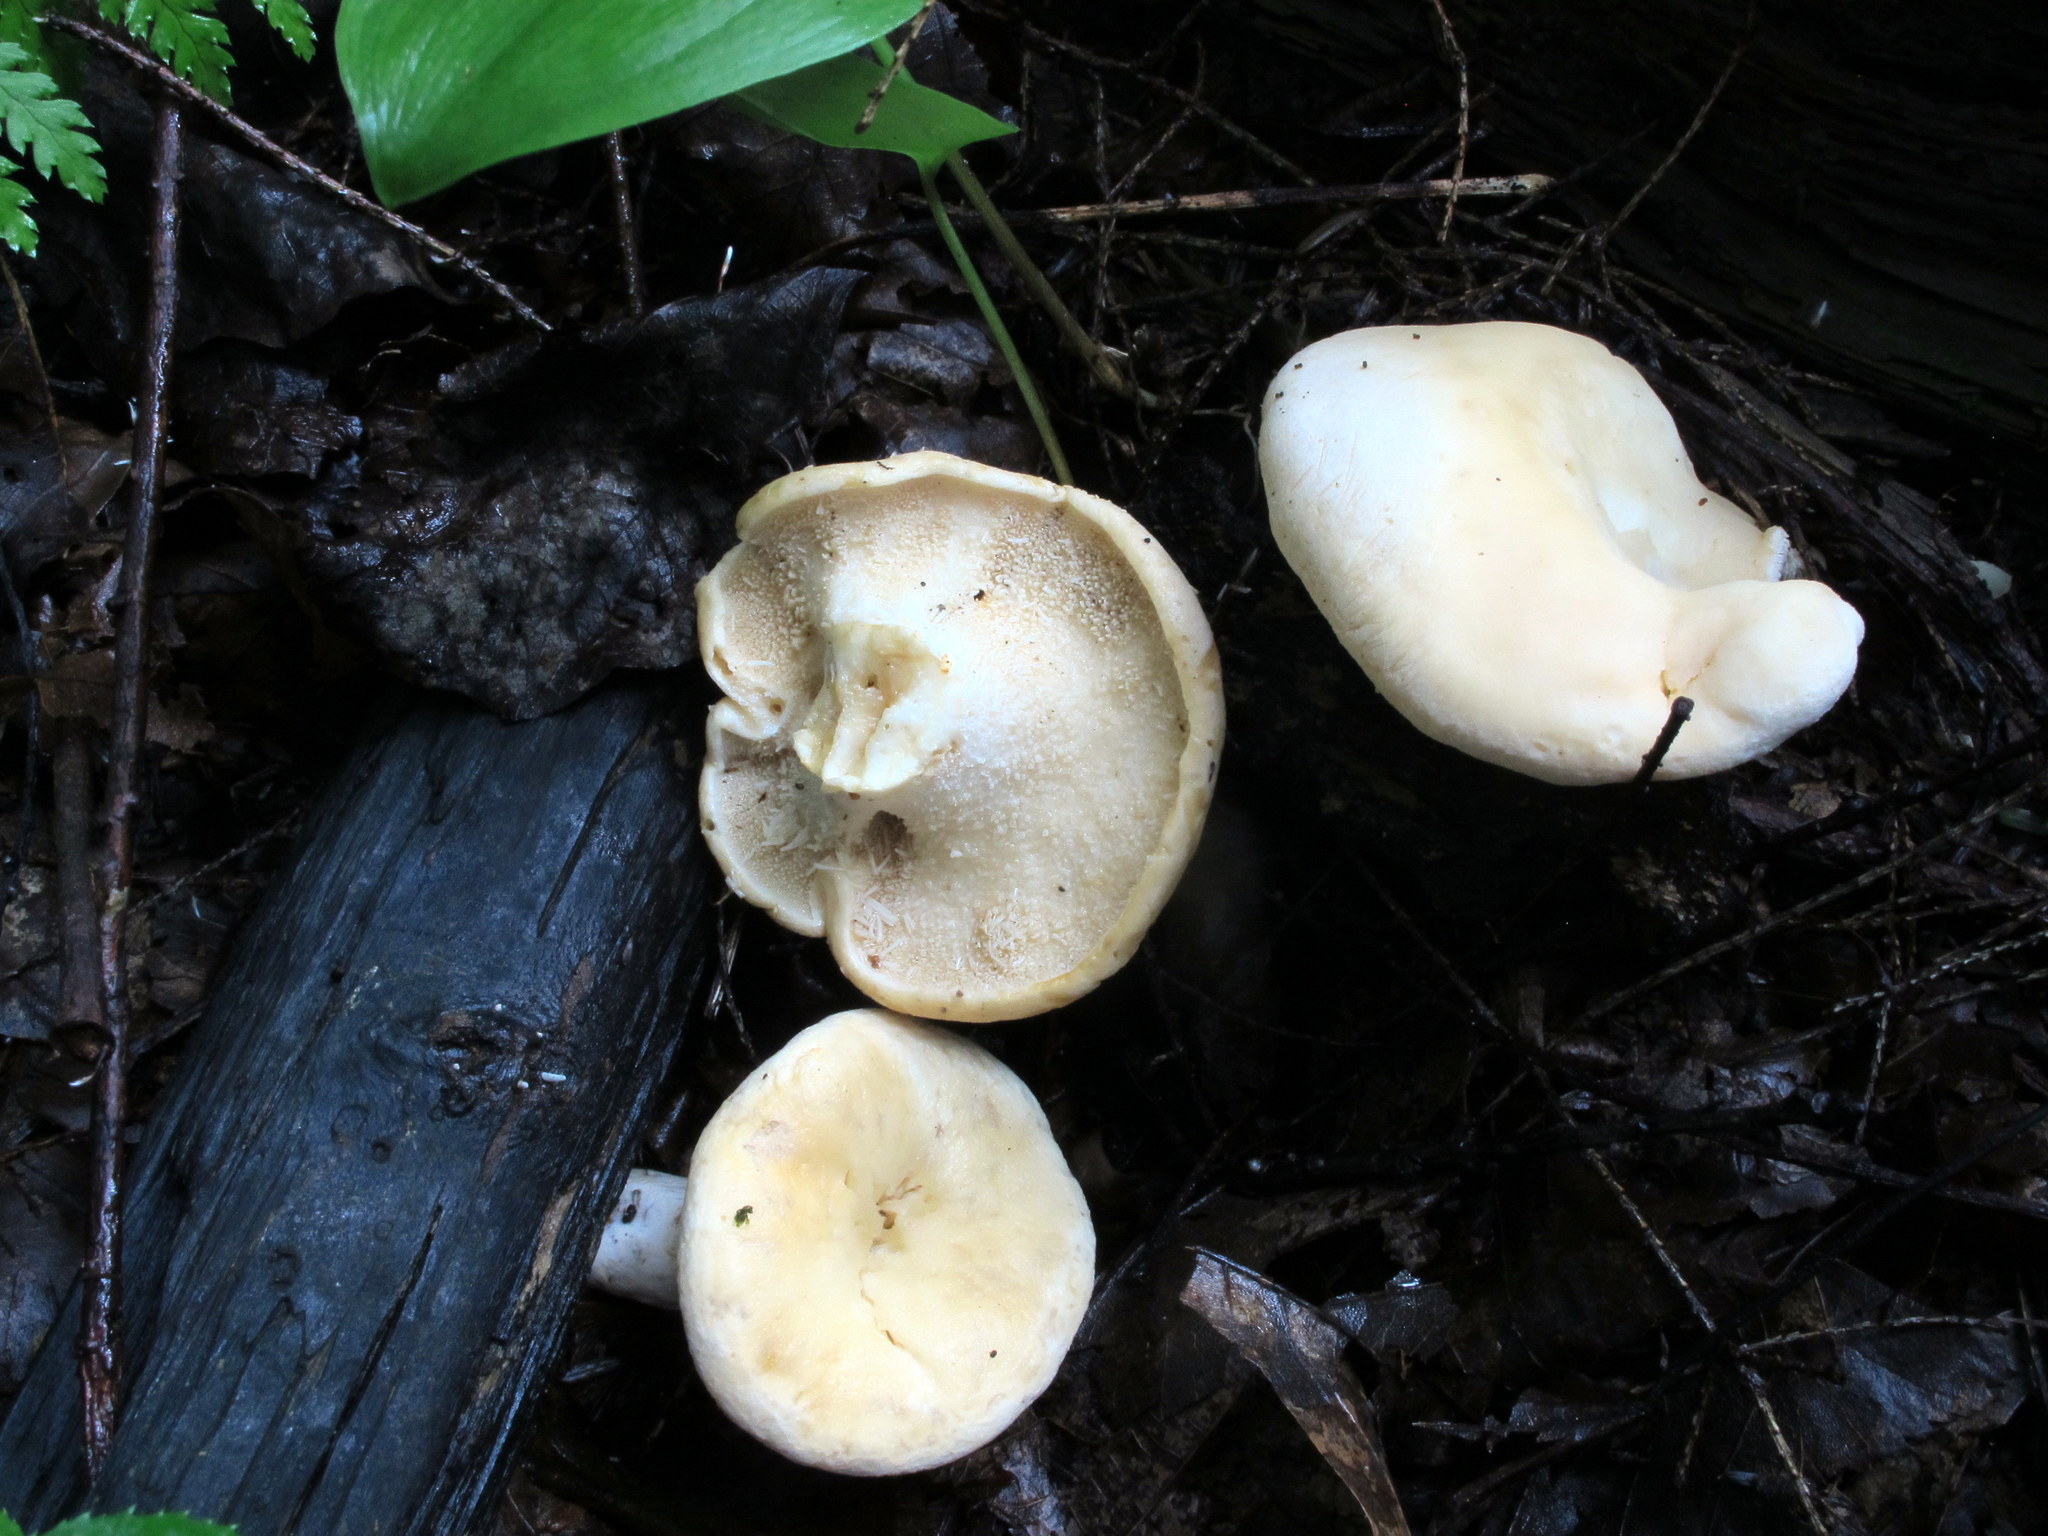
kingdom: Fungi
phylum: Basidiomycota
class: Agaricomycetes
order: Cantharellales
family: Hydnaceae
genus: Hydnum
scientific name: Hydnum albidum
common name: White hedgehog
